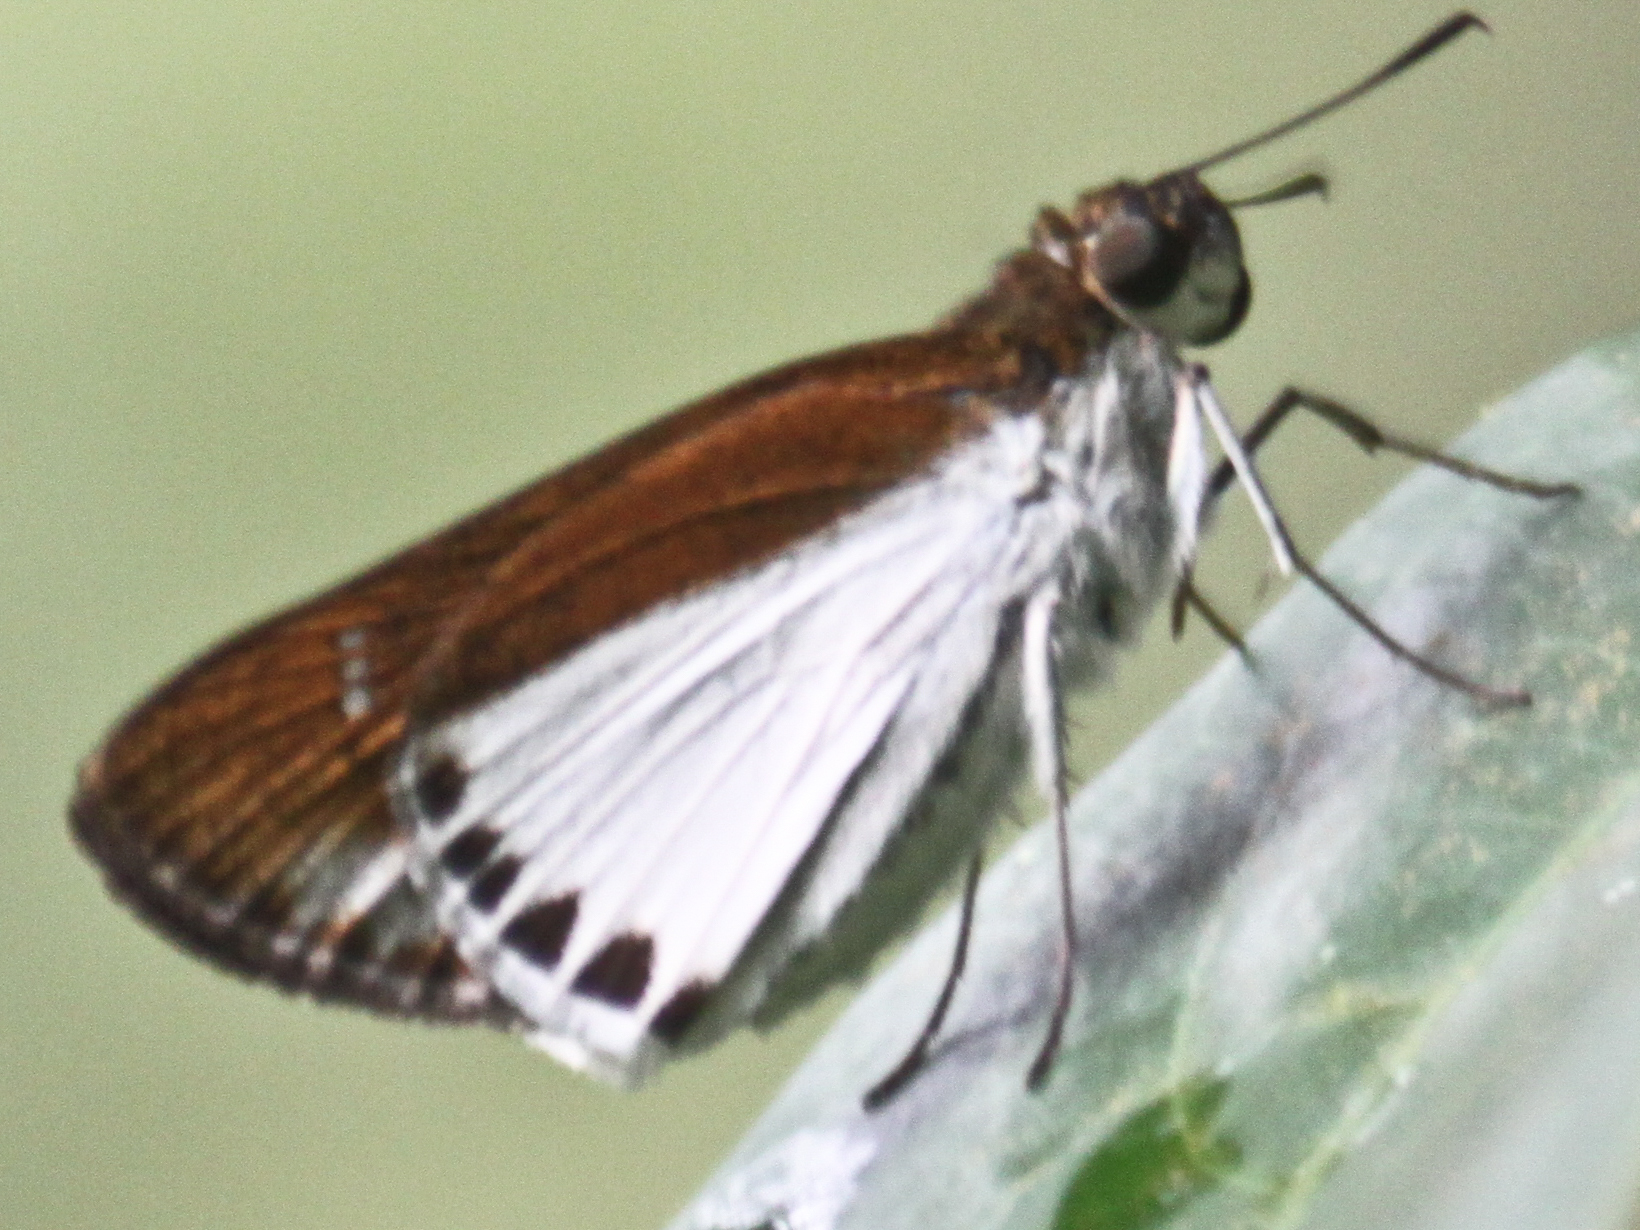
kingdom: Animalia
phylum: Arthropoda
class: Insecta
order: Lepidoptera
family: Hesperiidae
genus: Iton
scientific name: Iton semamora
